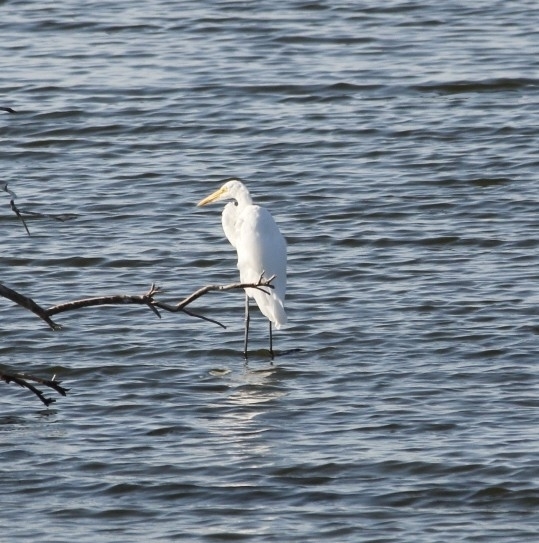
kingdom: Animalia
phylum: Chordata
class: Aves
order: Pelecaniformes
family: Ardeidae
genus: Ardea
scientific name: Ardea alba
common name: Great egret
